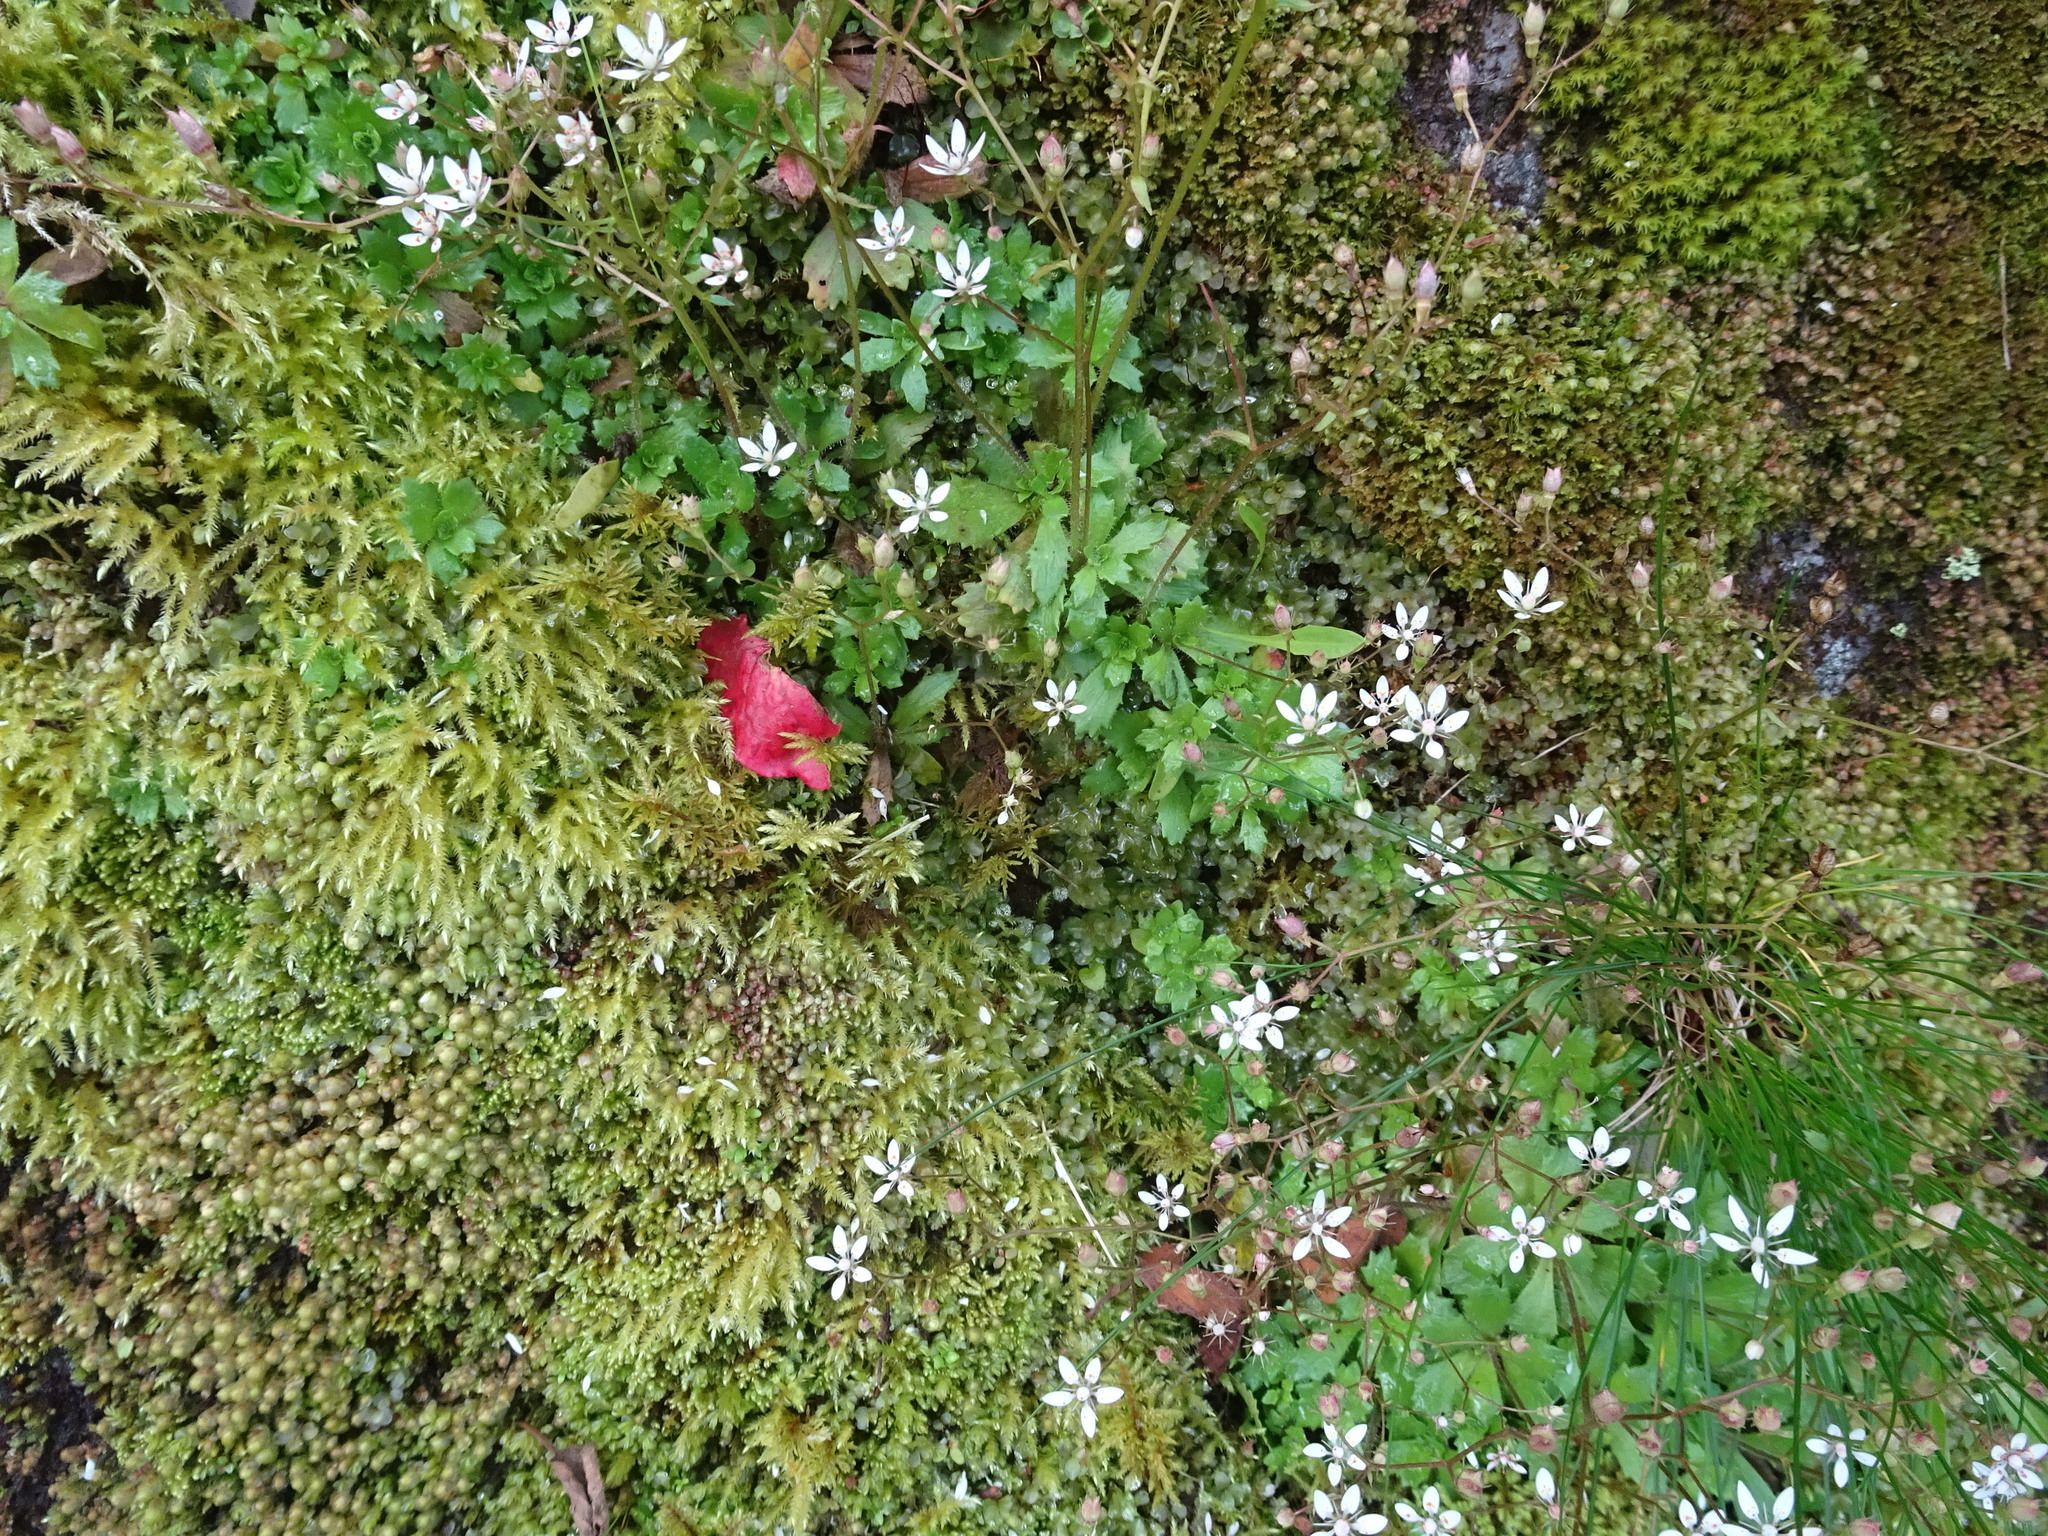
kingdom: Plantae
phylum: Tracheophyta
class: Magnoliopsida
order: Saxifragales
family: Saxifragaceae
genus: Micranthes
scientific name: Micranthes stellaris
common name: Starry saxifrage
